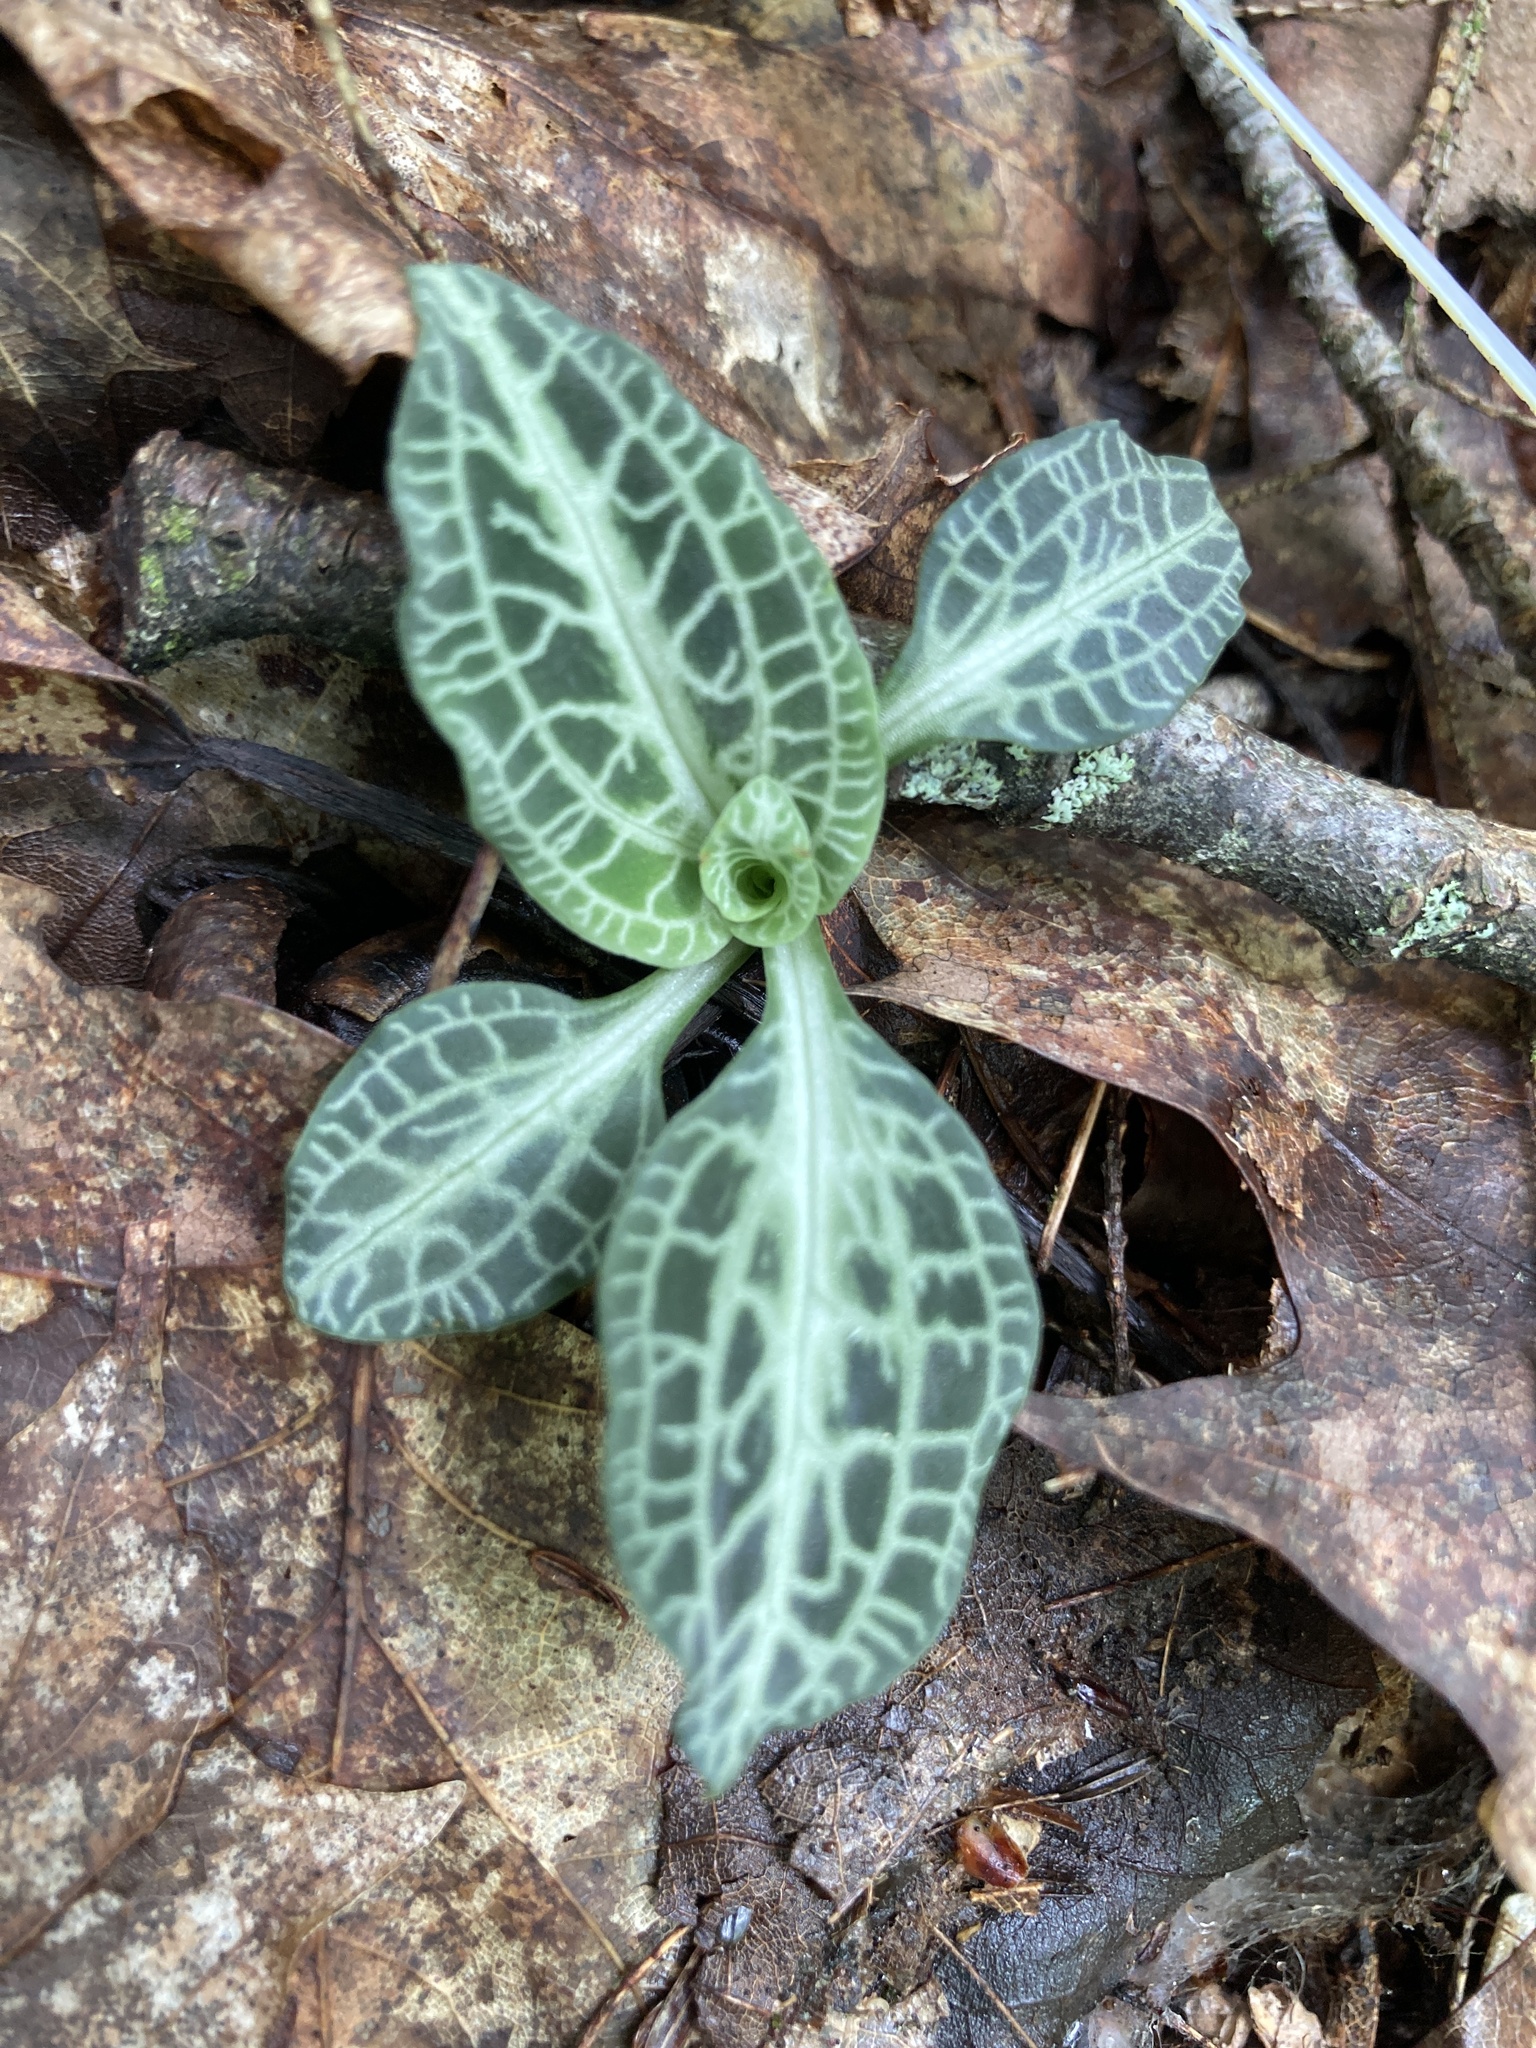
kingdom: Plantae
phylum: Tracheophyta
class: Liliopsida
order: Asparagales
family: Orchidaceae
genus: Goodyera
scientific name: Goodyera pubescens
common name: Downy rattlesnake-plantain
